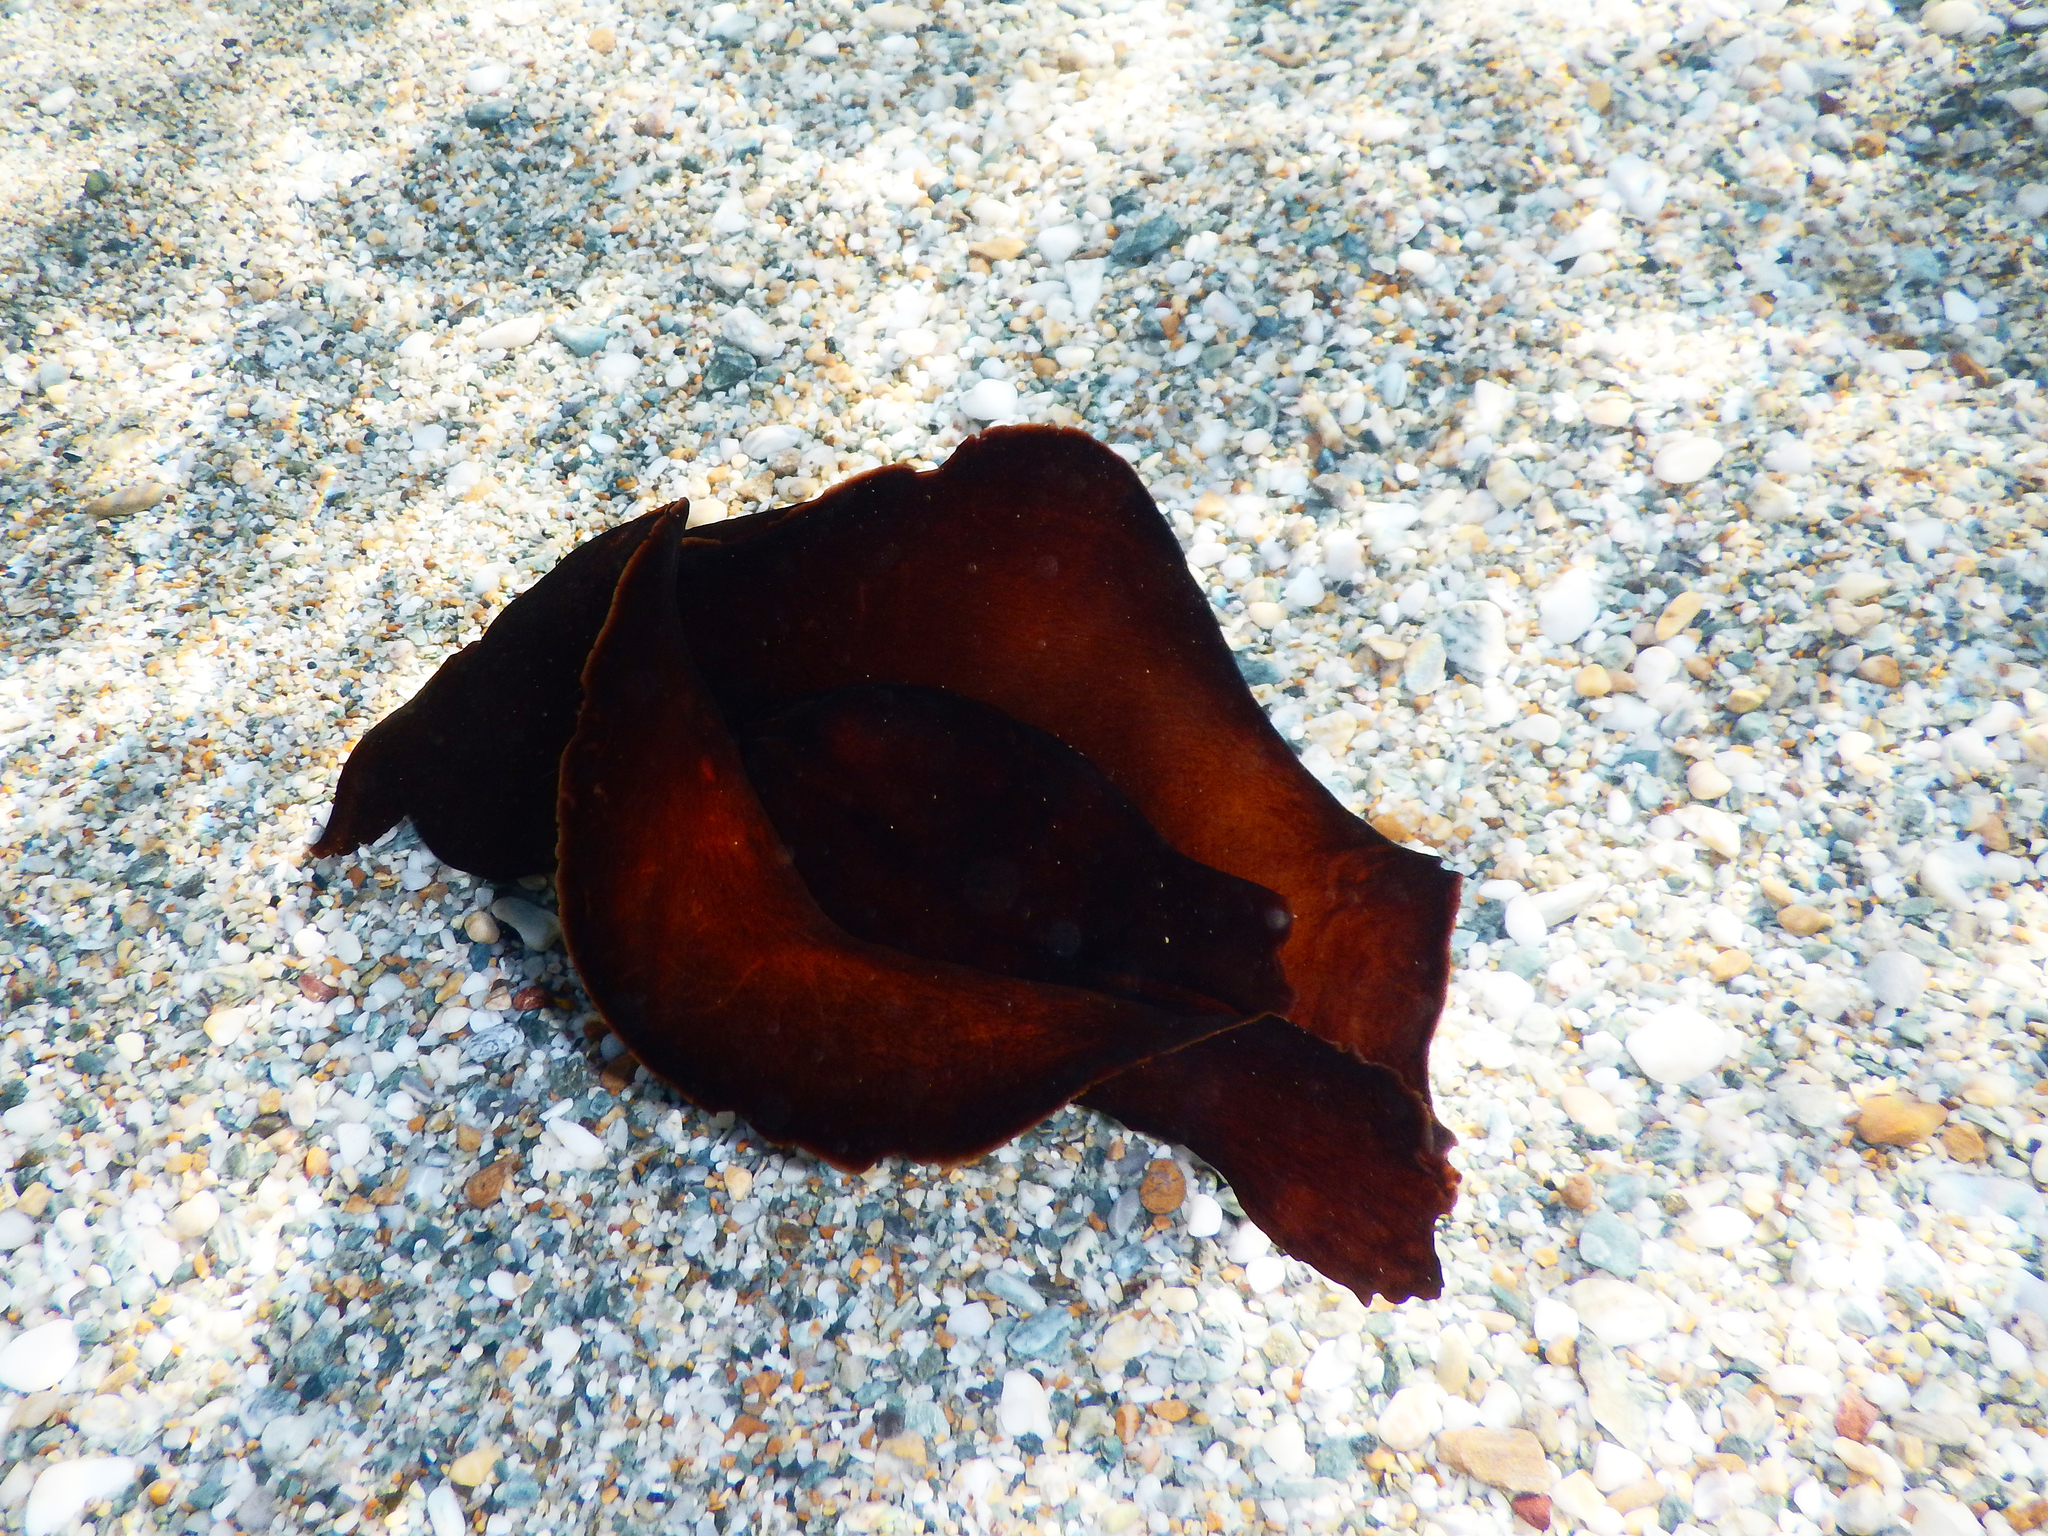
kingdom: Animalia
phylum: Mollusca
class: Gastropoda
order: Aplysiida
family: Aplysiidae
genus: Aplysia
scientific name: Aplysia fasciata
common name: Banded sea hare
